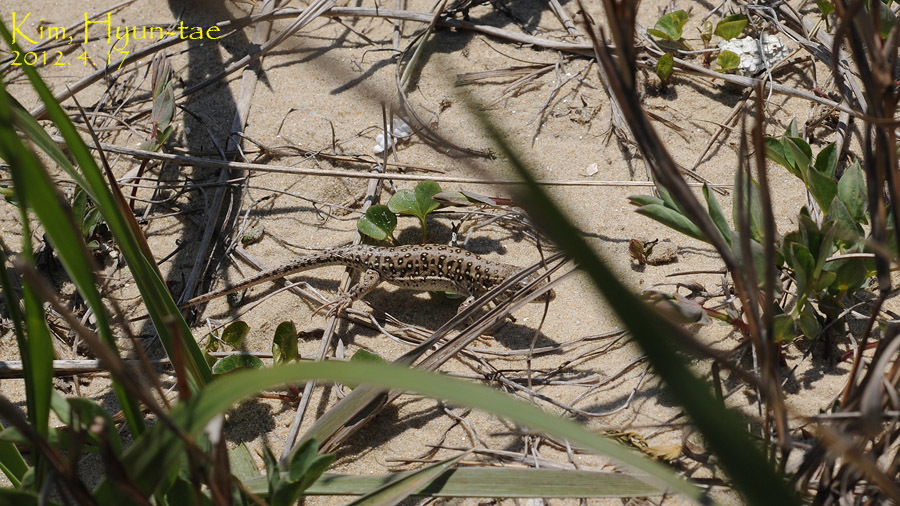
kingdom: Animalia
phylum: Chordata
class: Squamata
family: Lacertidae
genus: Eremias
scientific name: Eremias argus
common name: Mongolia racerunner
